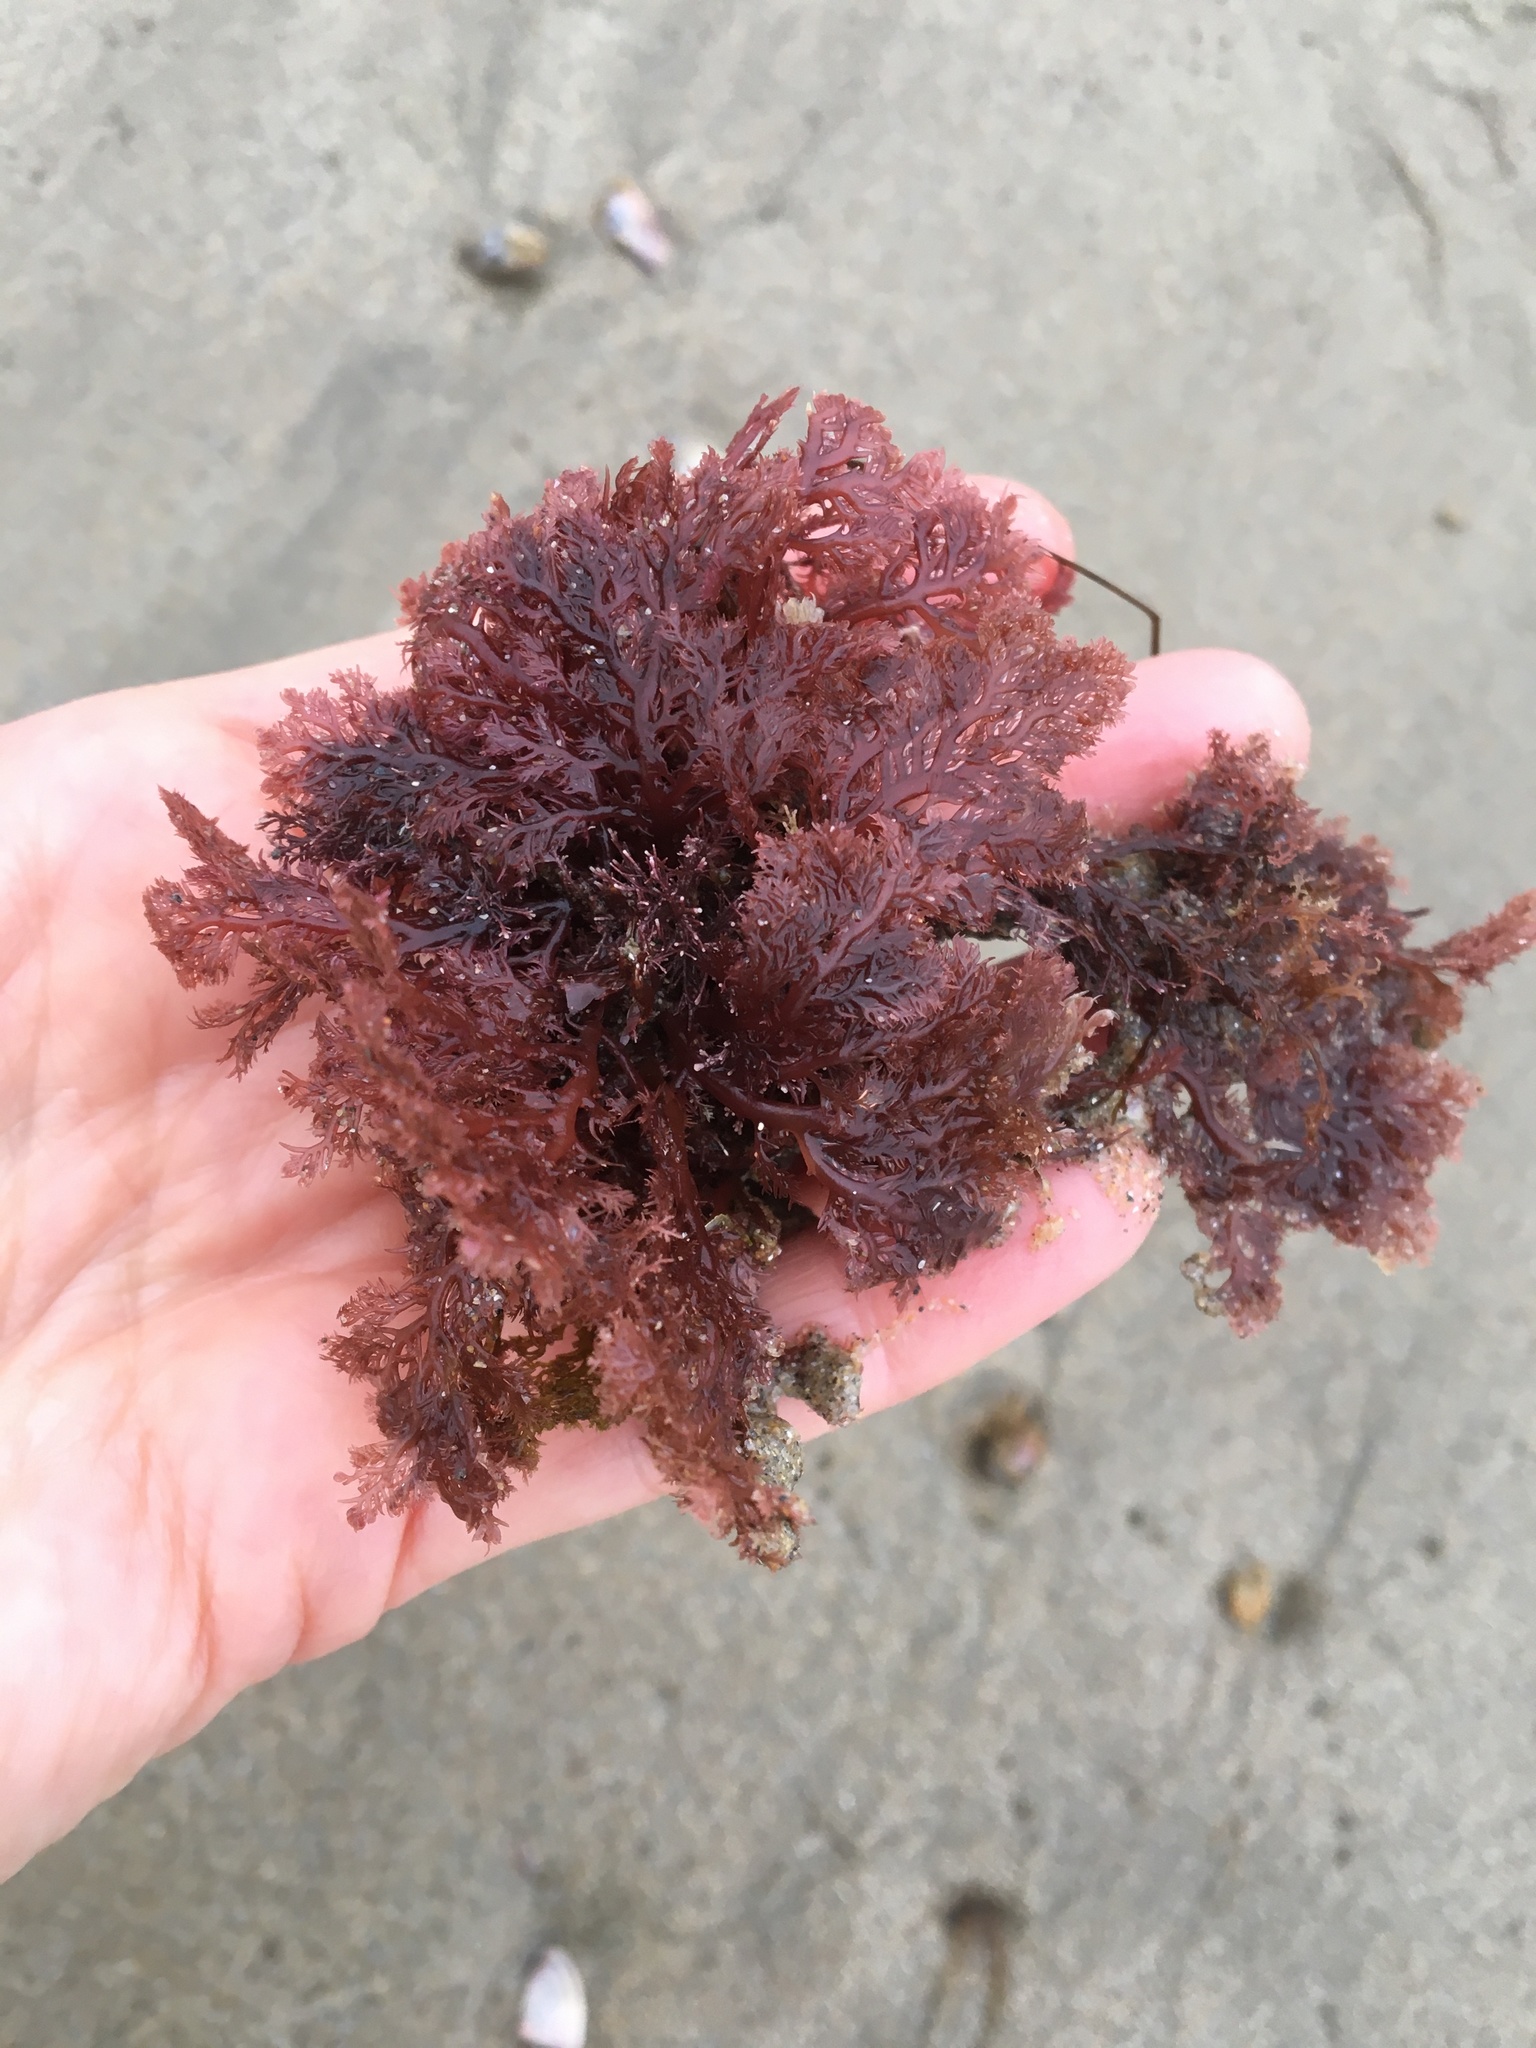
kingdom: Plantae
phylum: Rhodophyta
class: Florideophyceae
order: Plocamiales
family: Plocamiaceae
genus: Plocamium
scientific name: Plocamium cartilagineum
